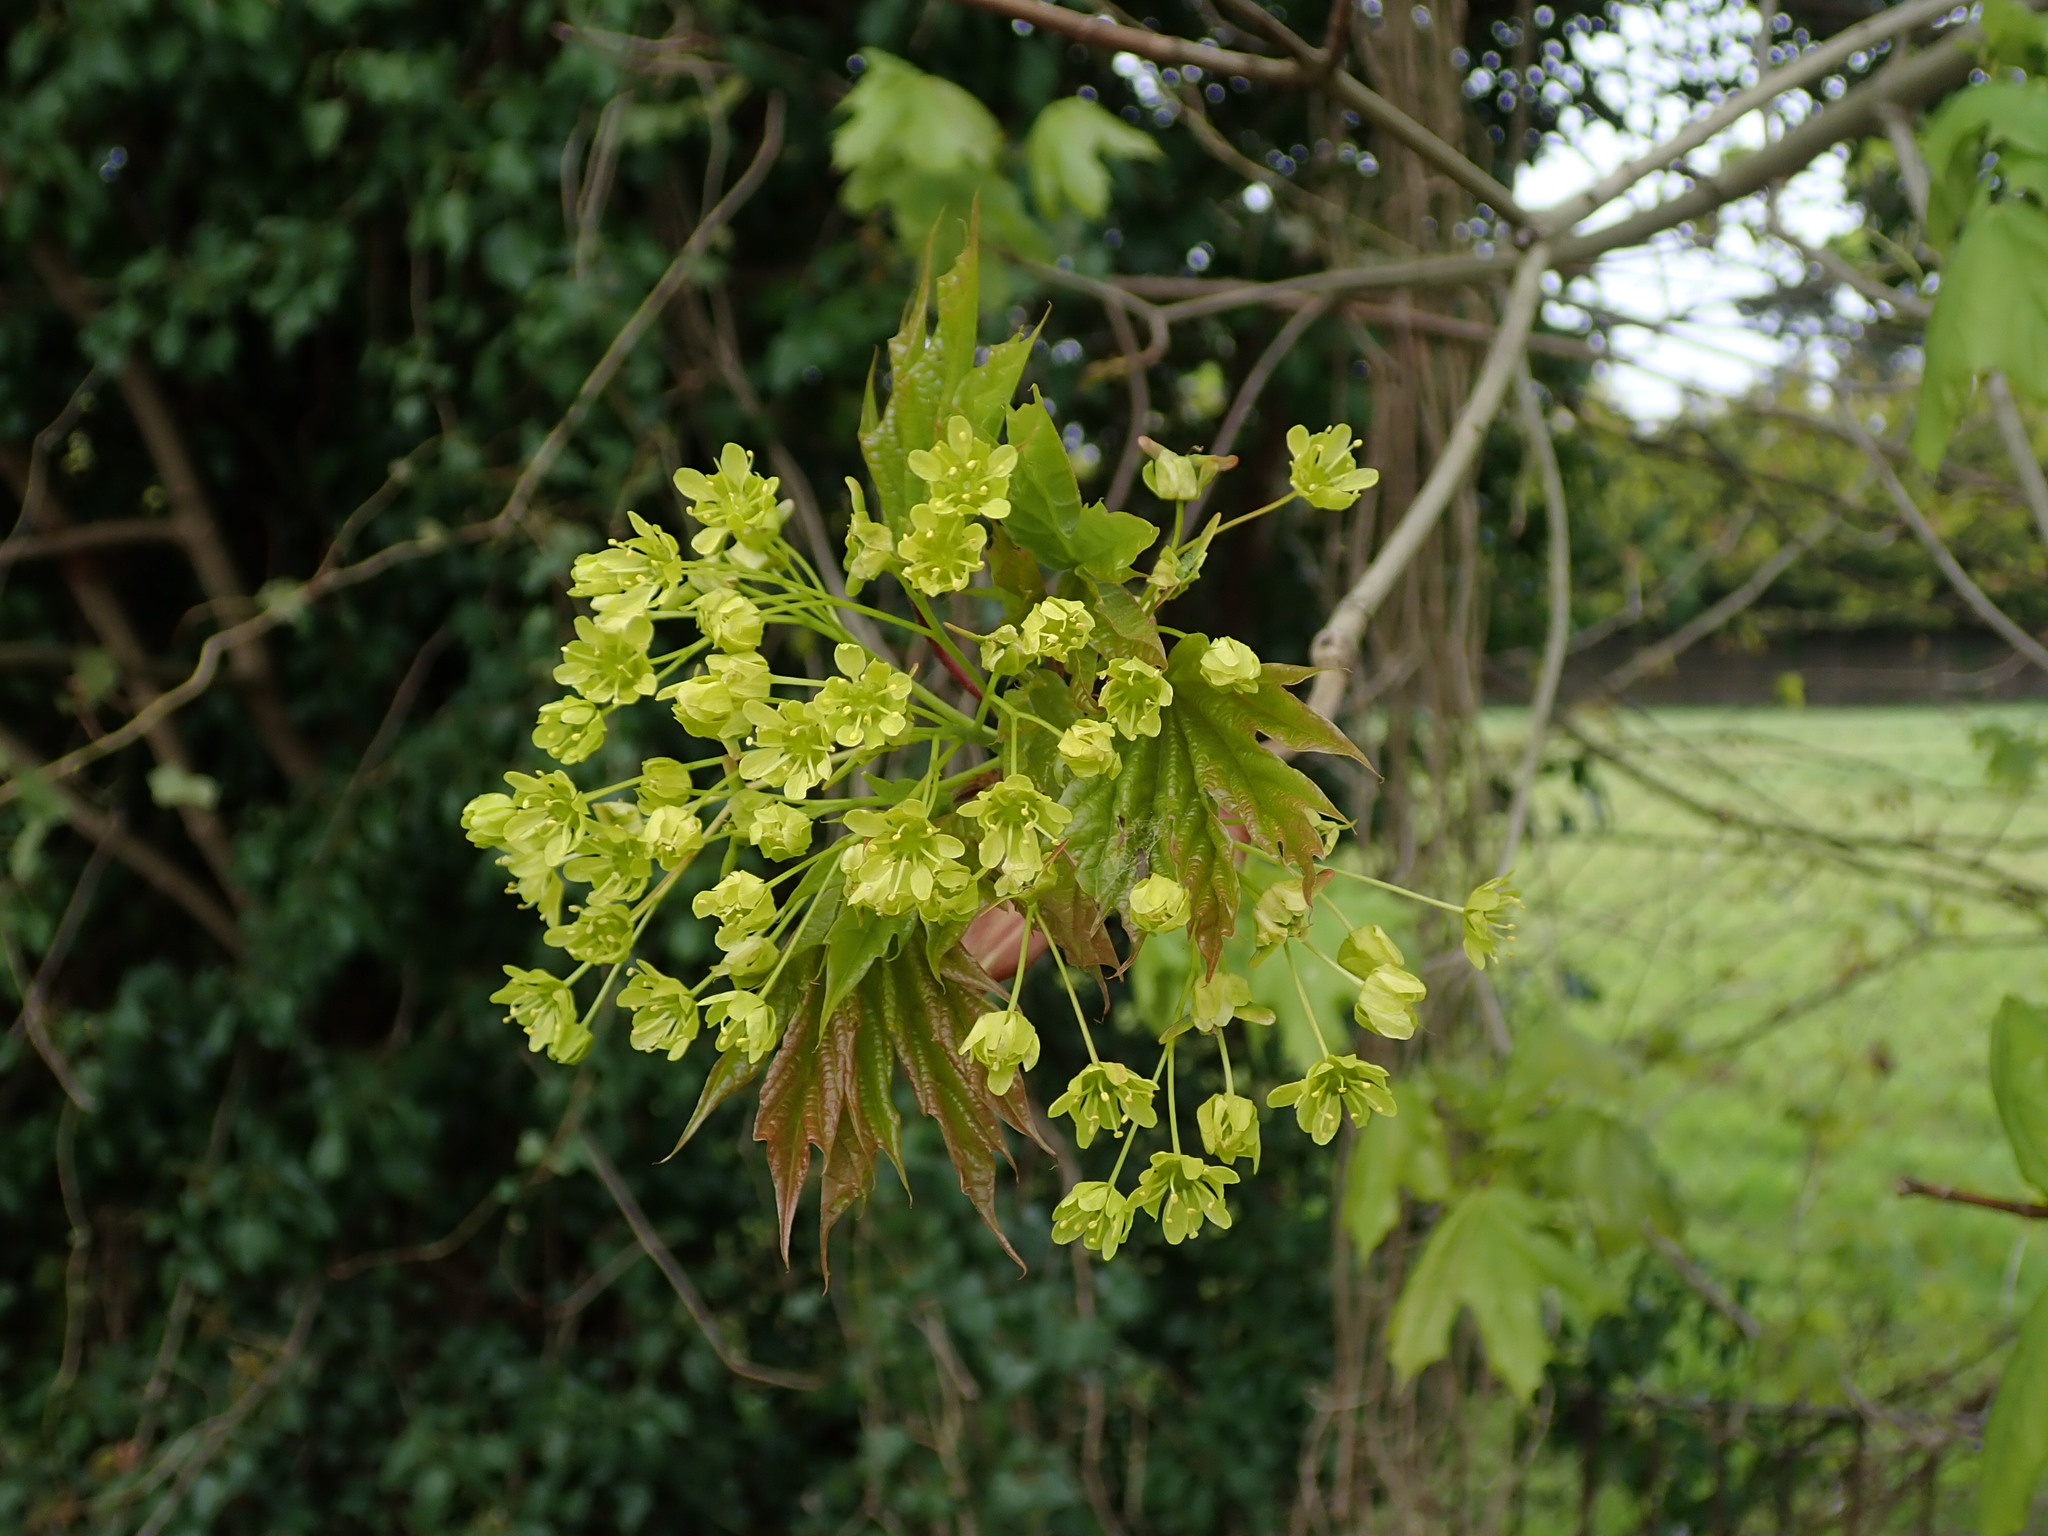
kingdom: Plantae
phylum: Tracheophyta
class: Magnoliopsida
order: Sapindales
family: Sapindaceae
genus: Acer
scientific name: Acer platanoides
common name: Norway maple
